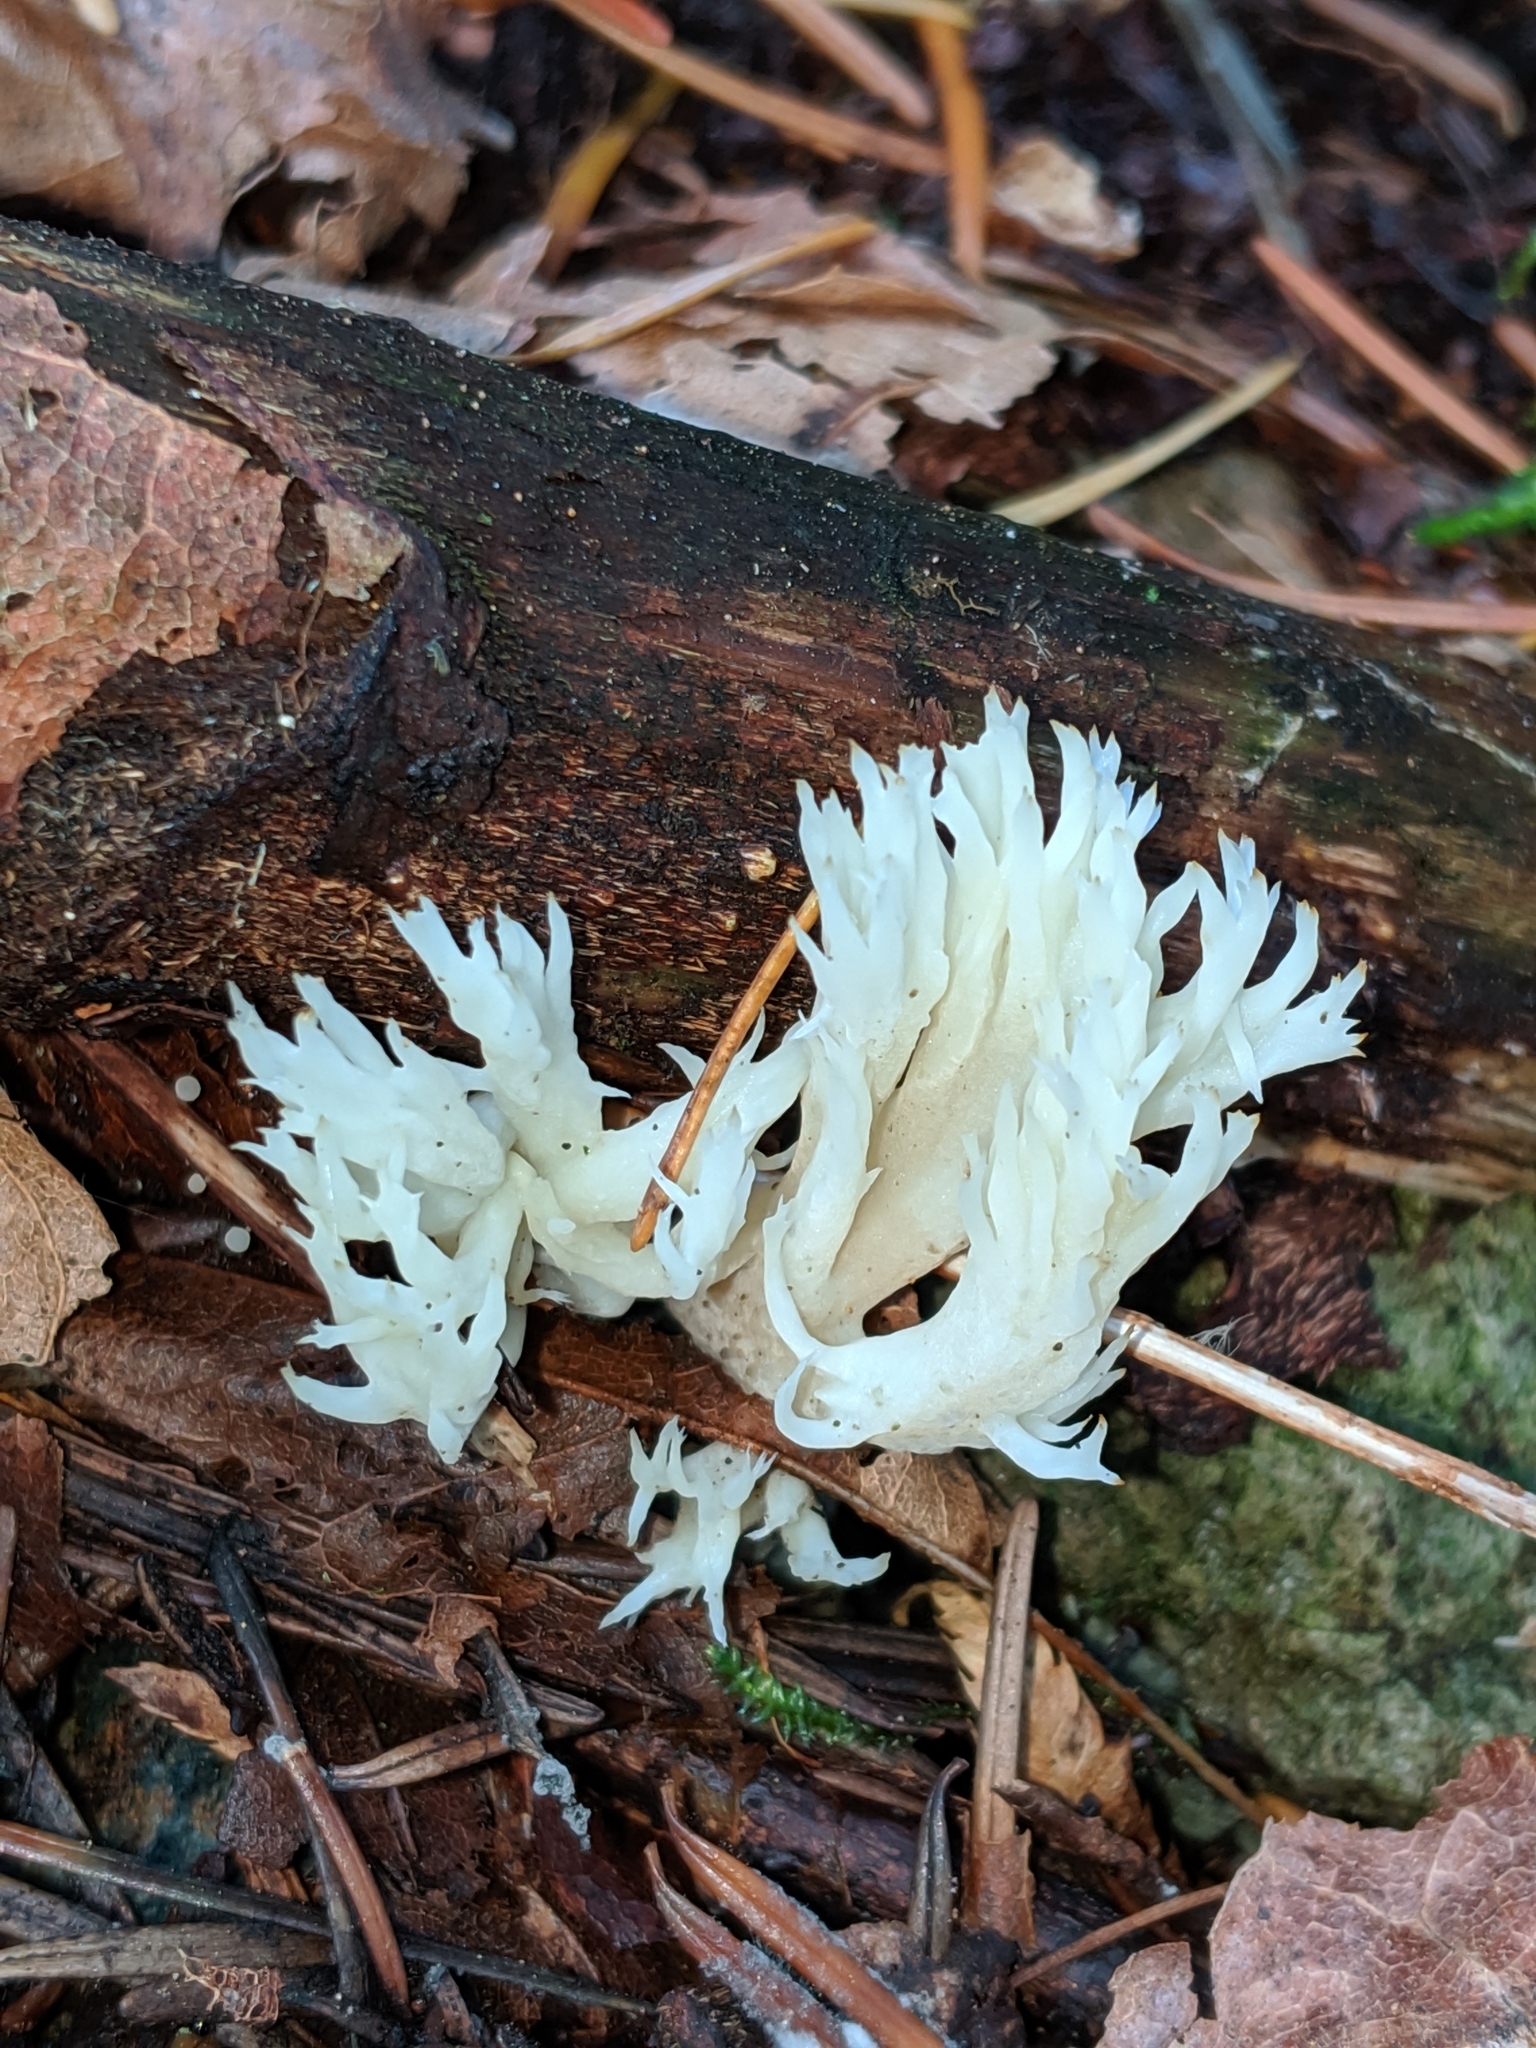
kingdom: Fungi
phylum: Basidiomycota
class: Agaricomycetes
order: Cantharellales
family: Hydnaceae
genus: Clavulina
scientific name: Clavulina coralloides
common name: Crested coral
